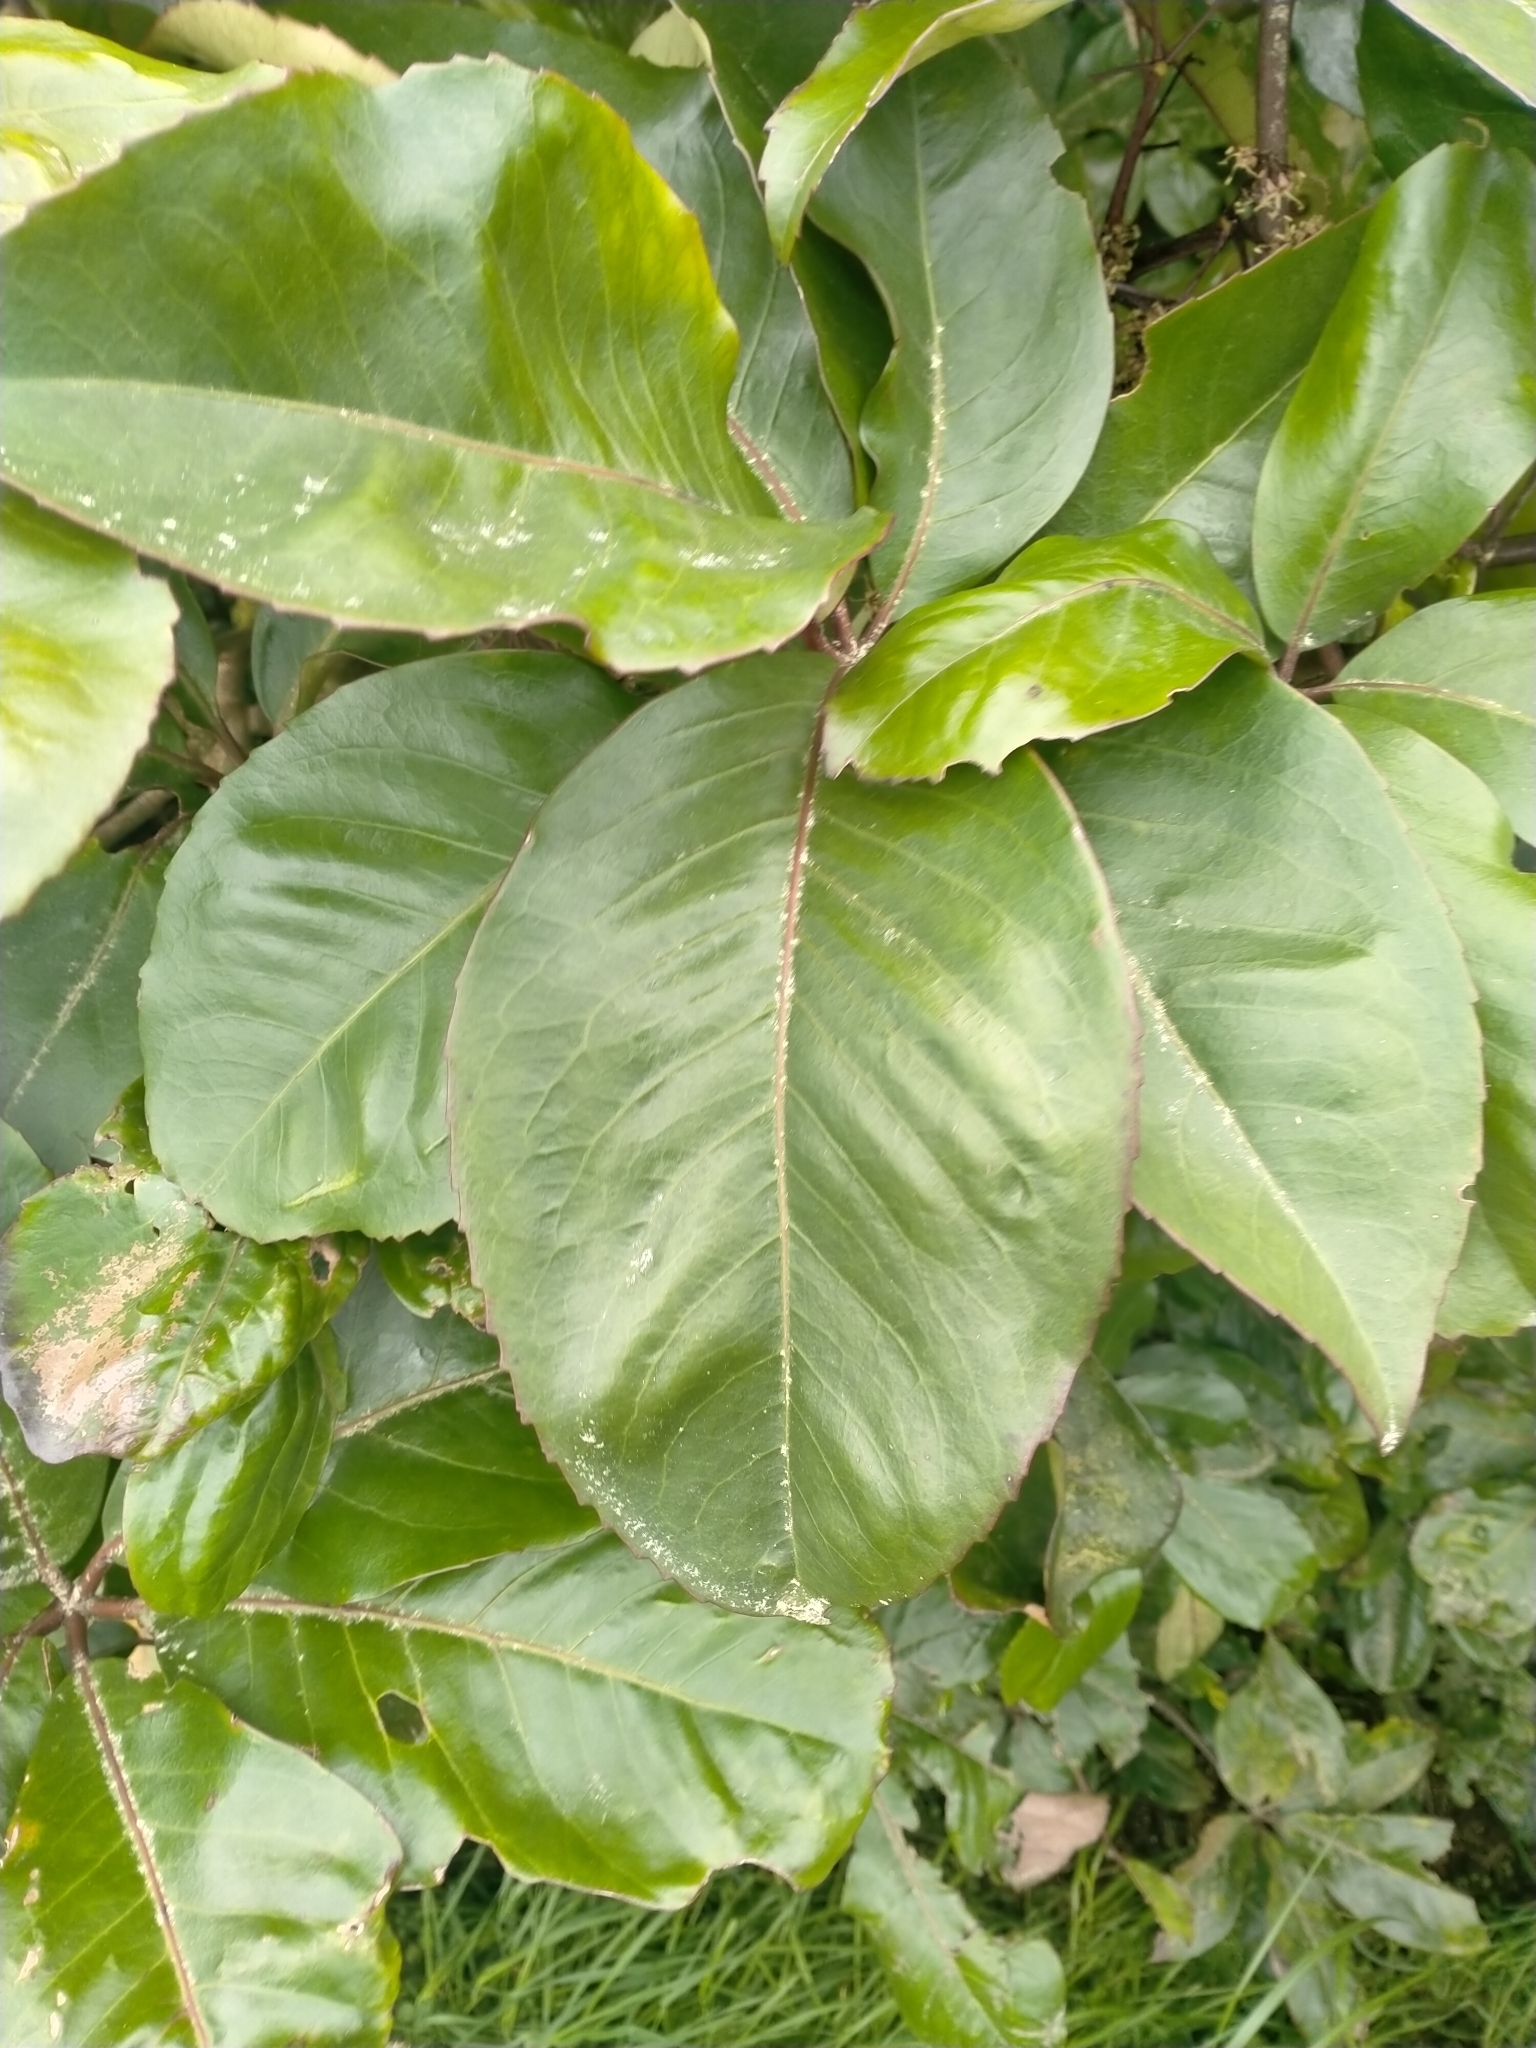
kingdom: Plantae
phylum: Tracheophyta
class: Magnoliopsida
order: Apiales
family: Araliaceae
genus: Neopanax
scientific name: Neopanax laetus
